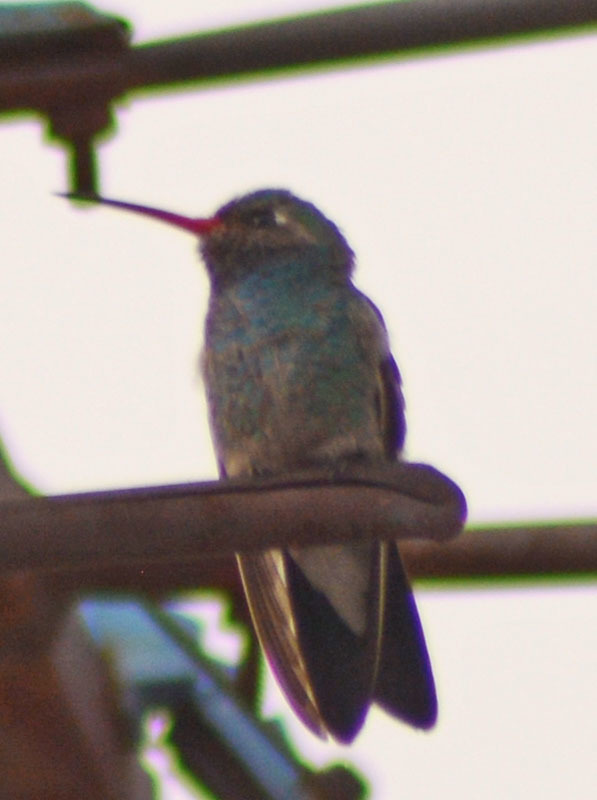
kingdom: Animalia
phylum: Chordata
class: Aves
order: Apodiformes
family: Trochilidae
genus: Cynanthus
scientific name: Cynanthus latirostris
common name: Broad-billed hummingbird
